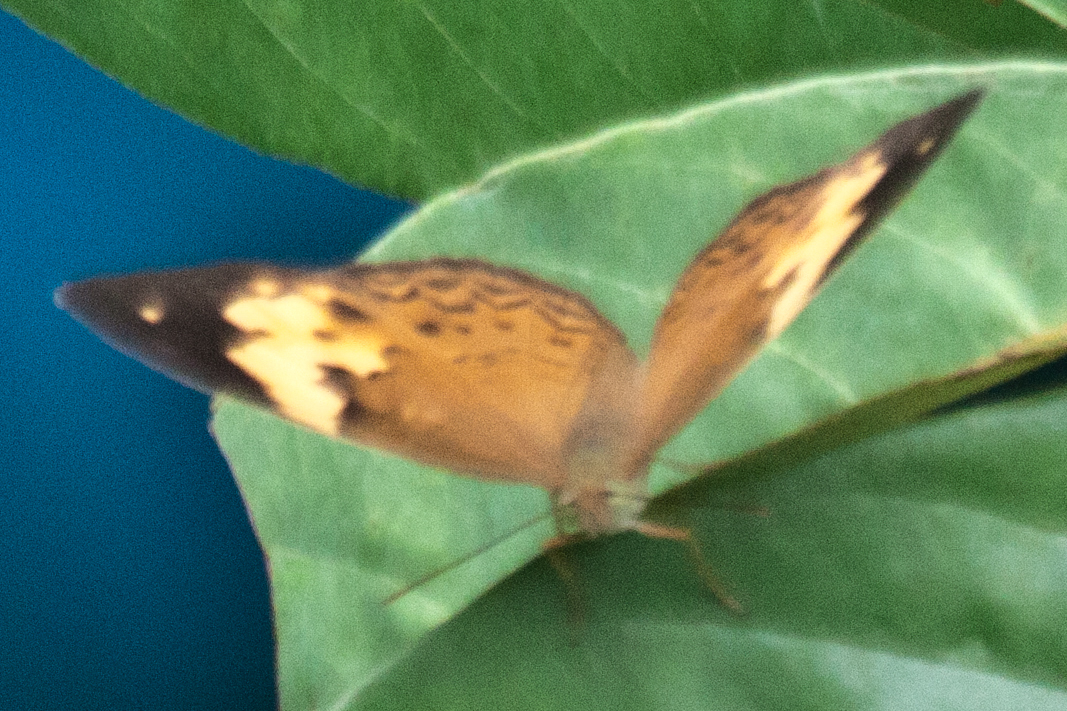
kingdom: Animalia
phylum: Arthropoda
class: Insecta
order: Lepidoptera
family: Nymphalidae
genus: Cupha
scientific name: Cupha erymanthis
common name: Rustic
